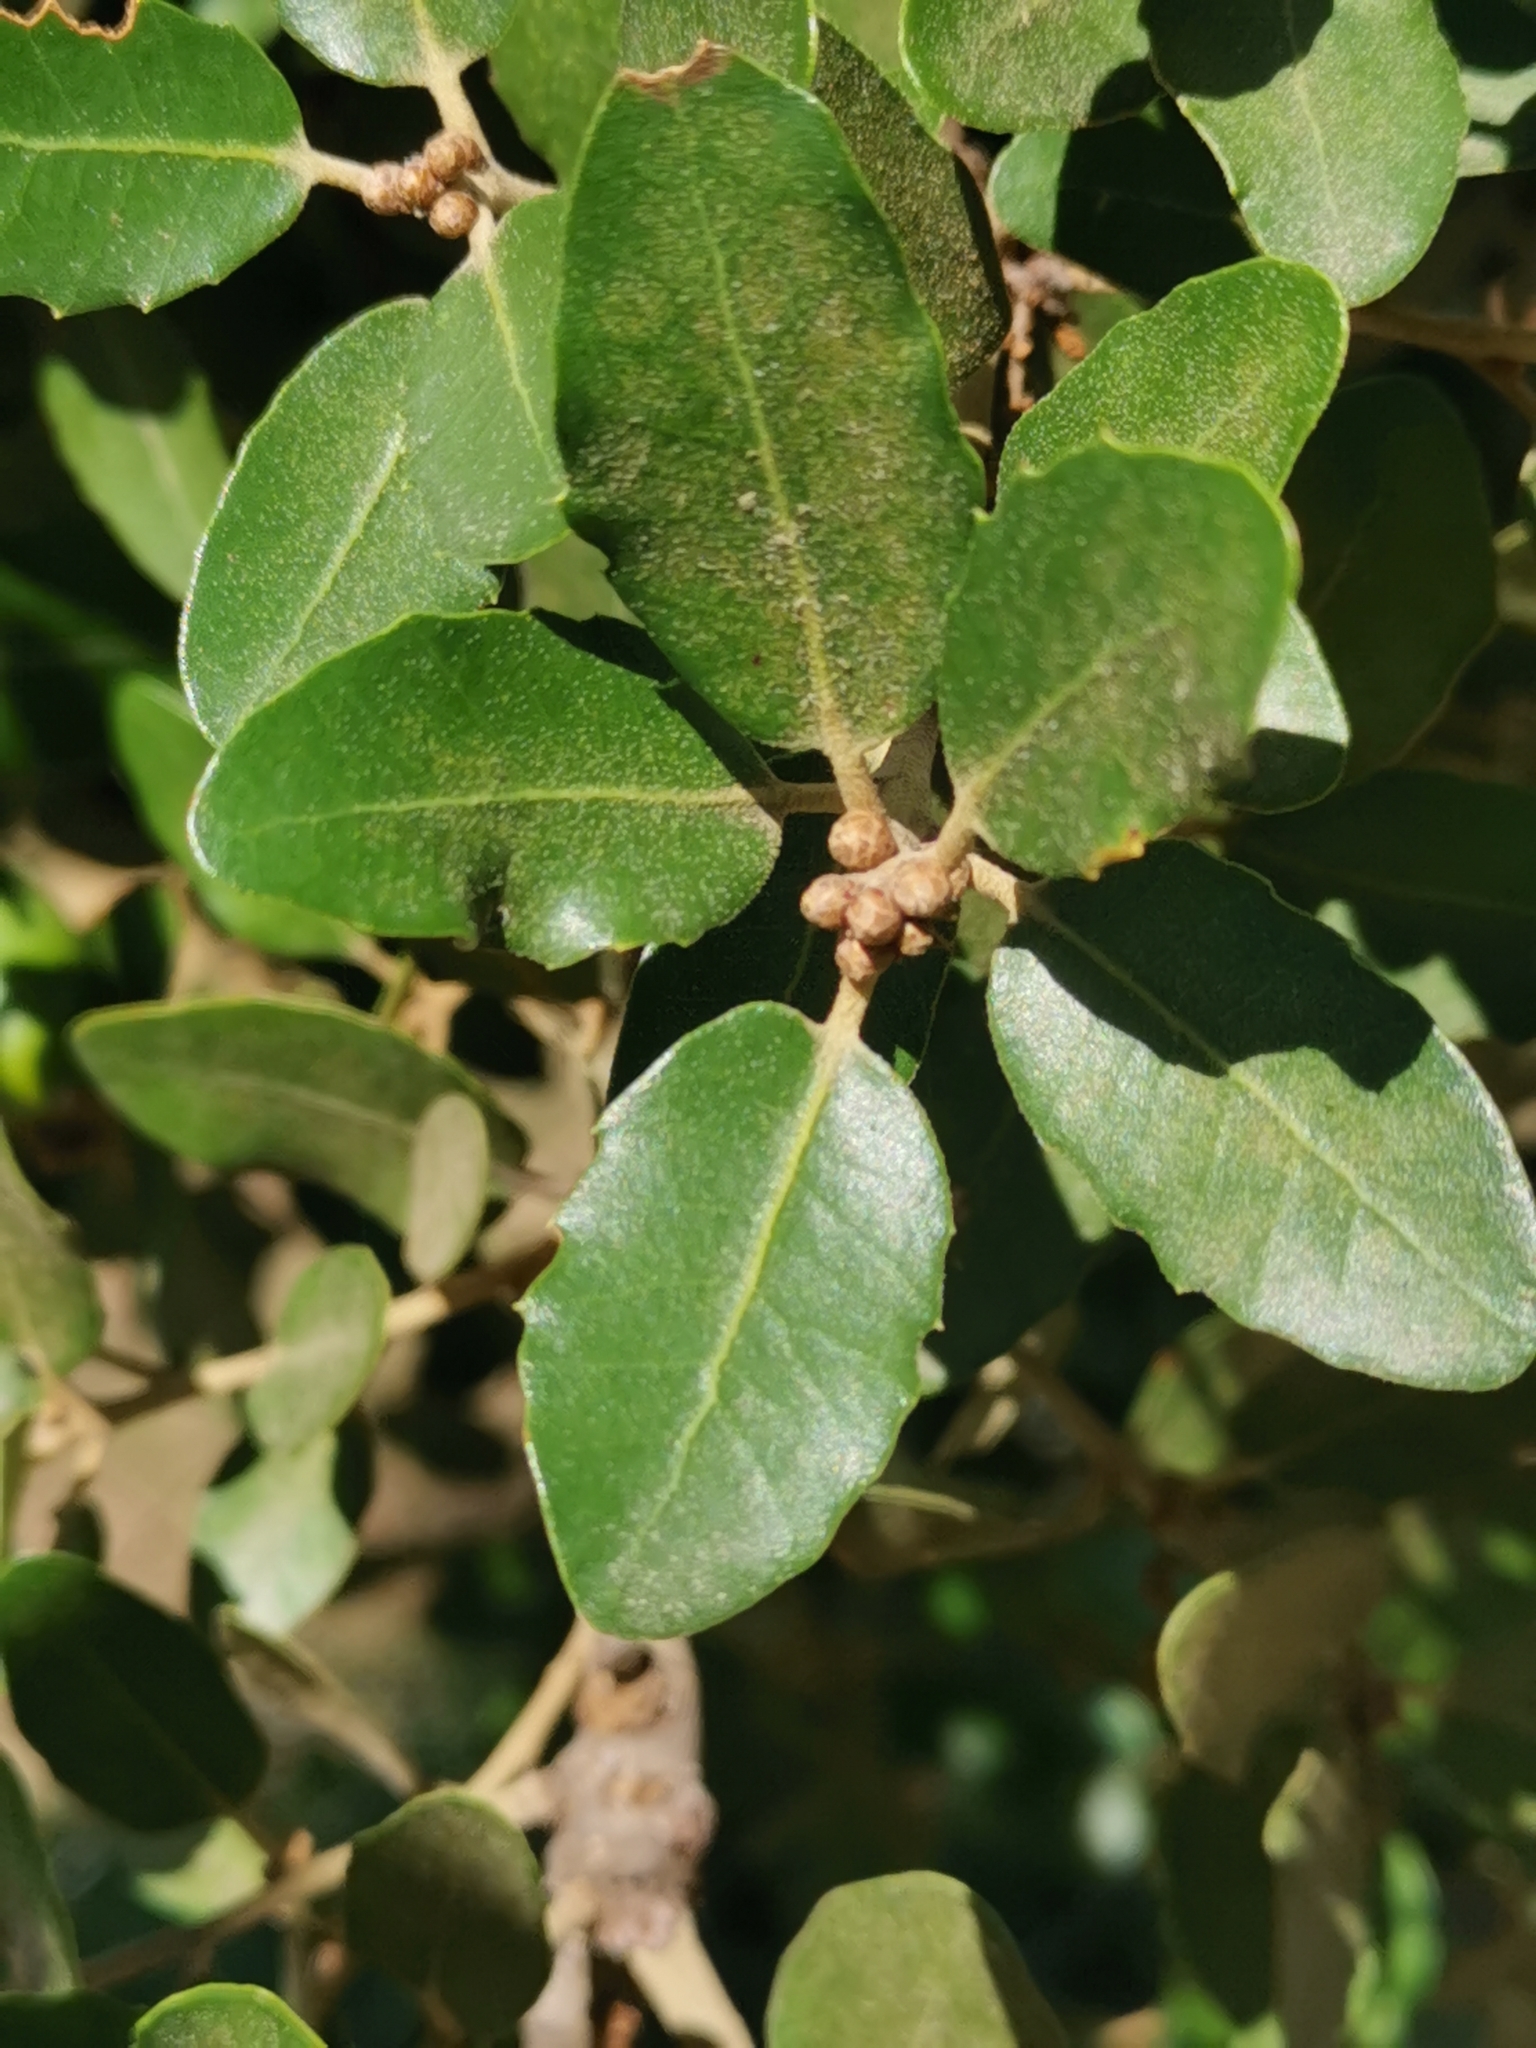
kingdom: Plantae
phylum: Tracheophyta
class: Magnoliopsida
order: Fagales
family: Fagaceae
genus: Quercus
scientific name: Quercus ilex
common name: Evergreen oak
